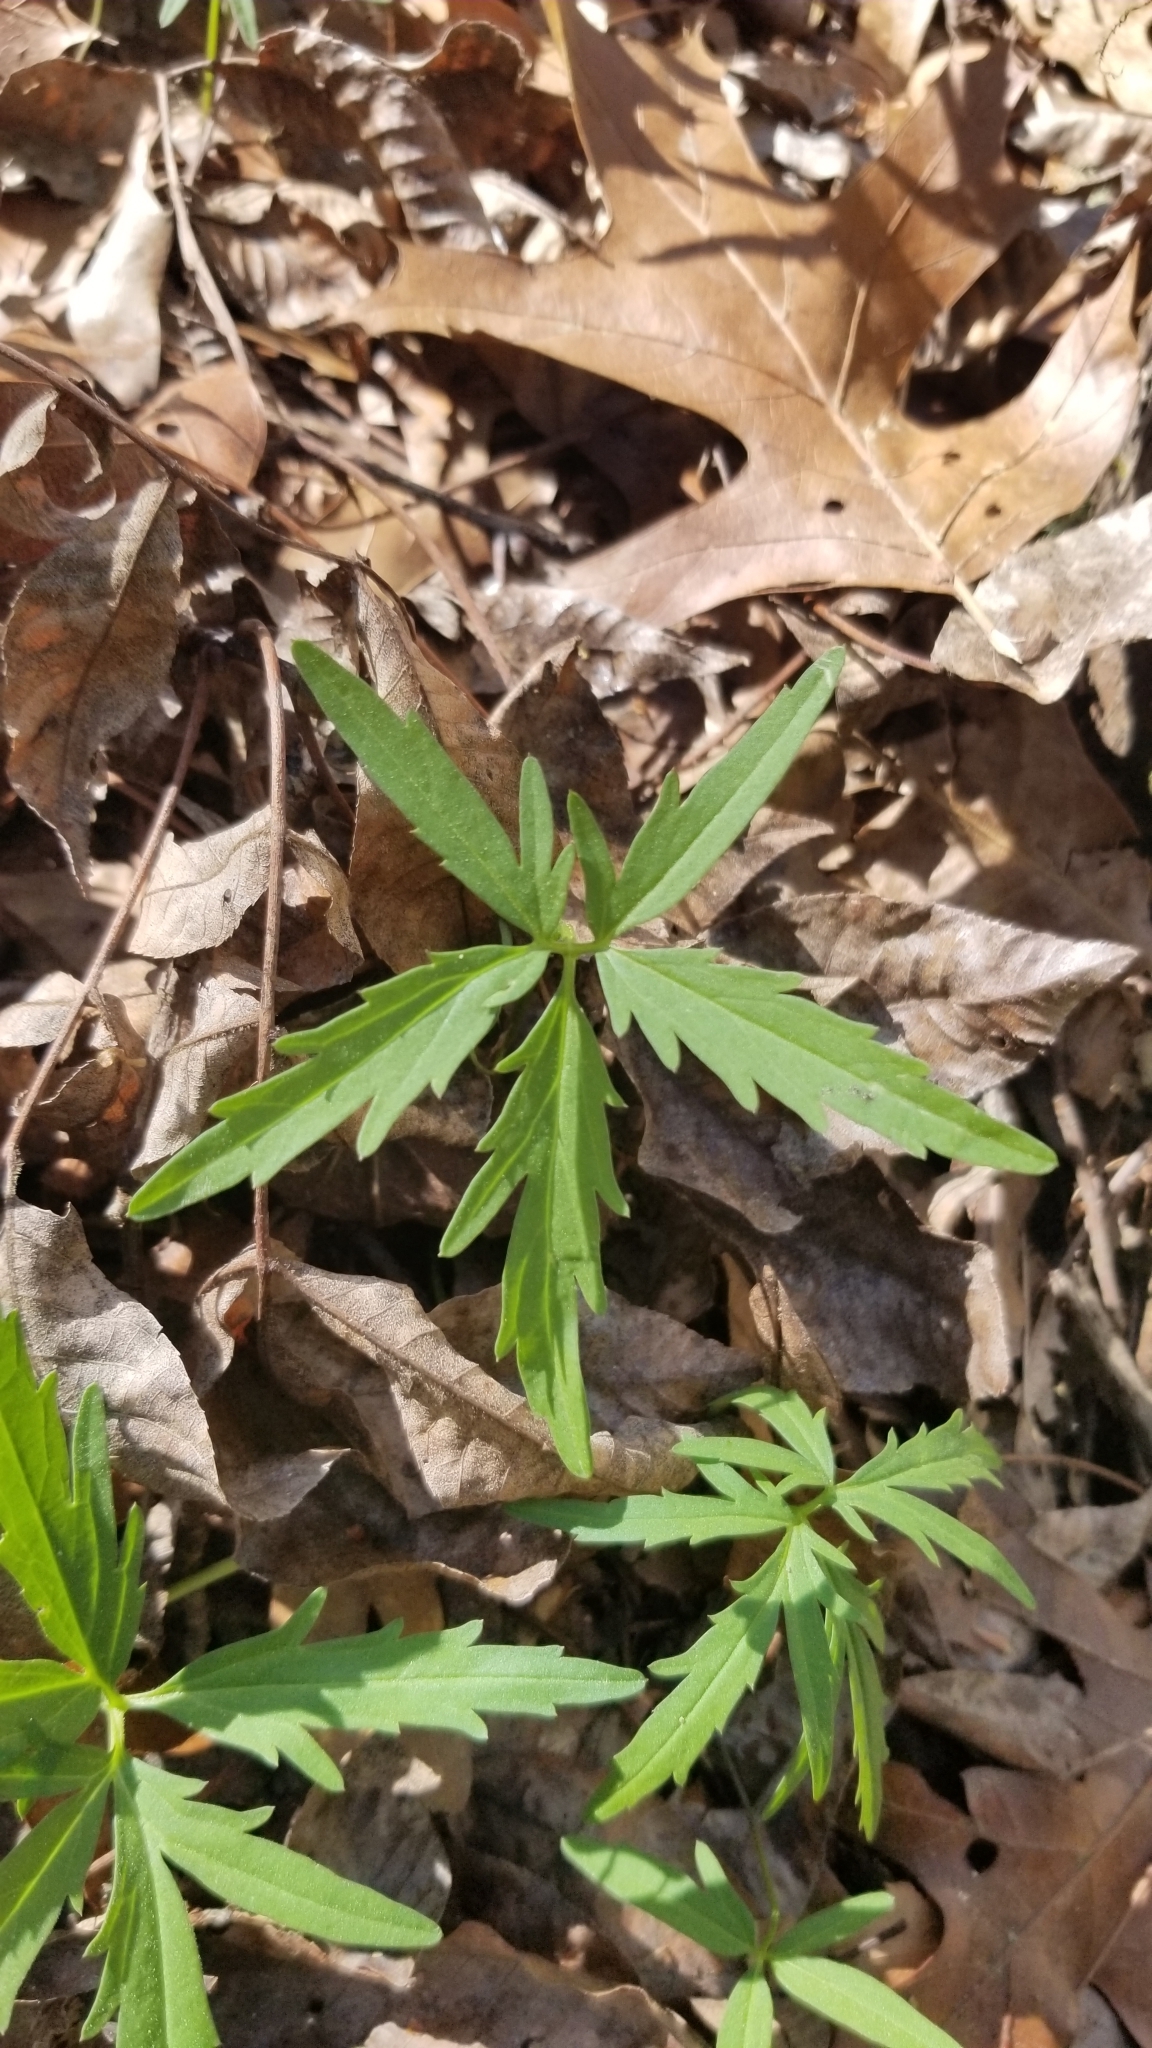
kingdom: Plantae
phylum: Tracheophyta
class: Magnoliopsida
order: Brassicales
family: Brassicaceae
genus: Cardamine
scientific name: Cardamine concatenata
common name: Cut-leaf toothcup
